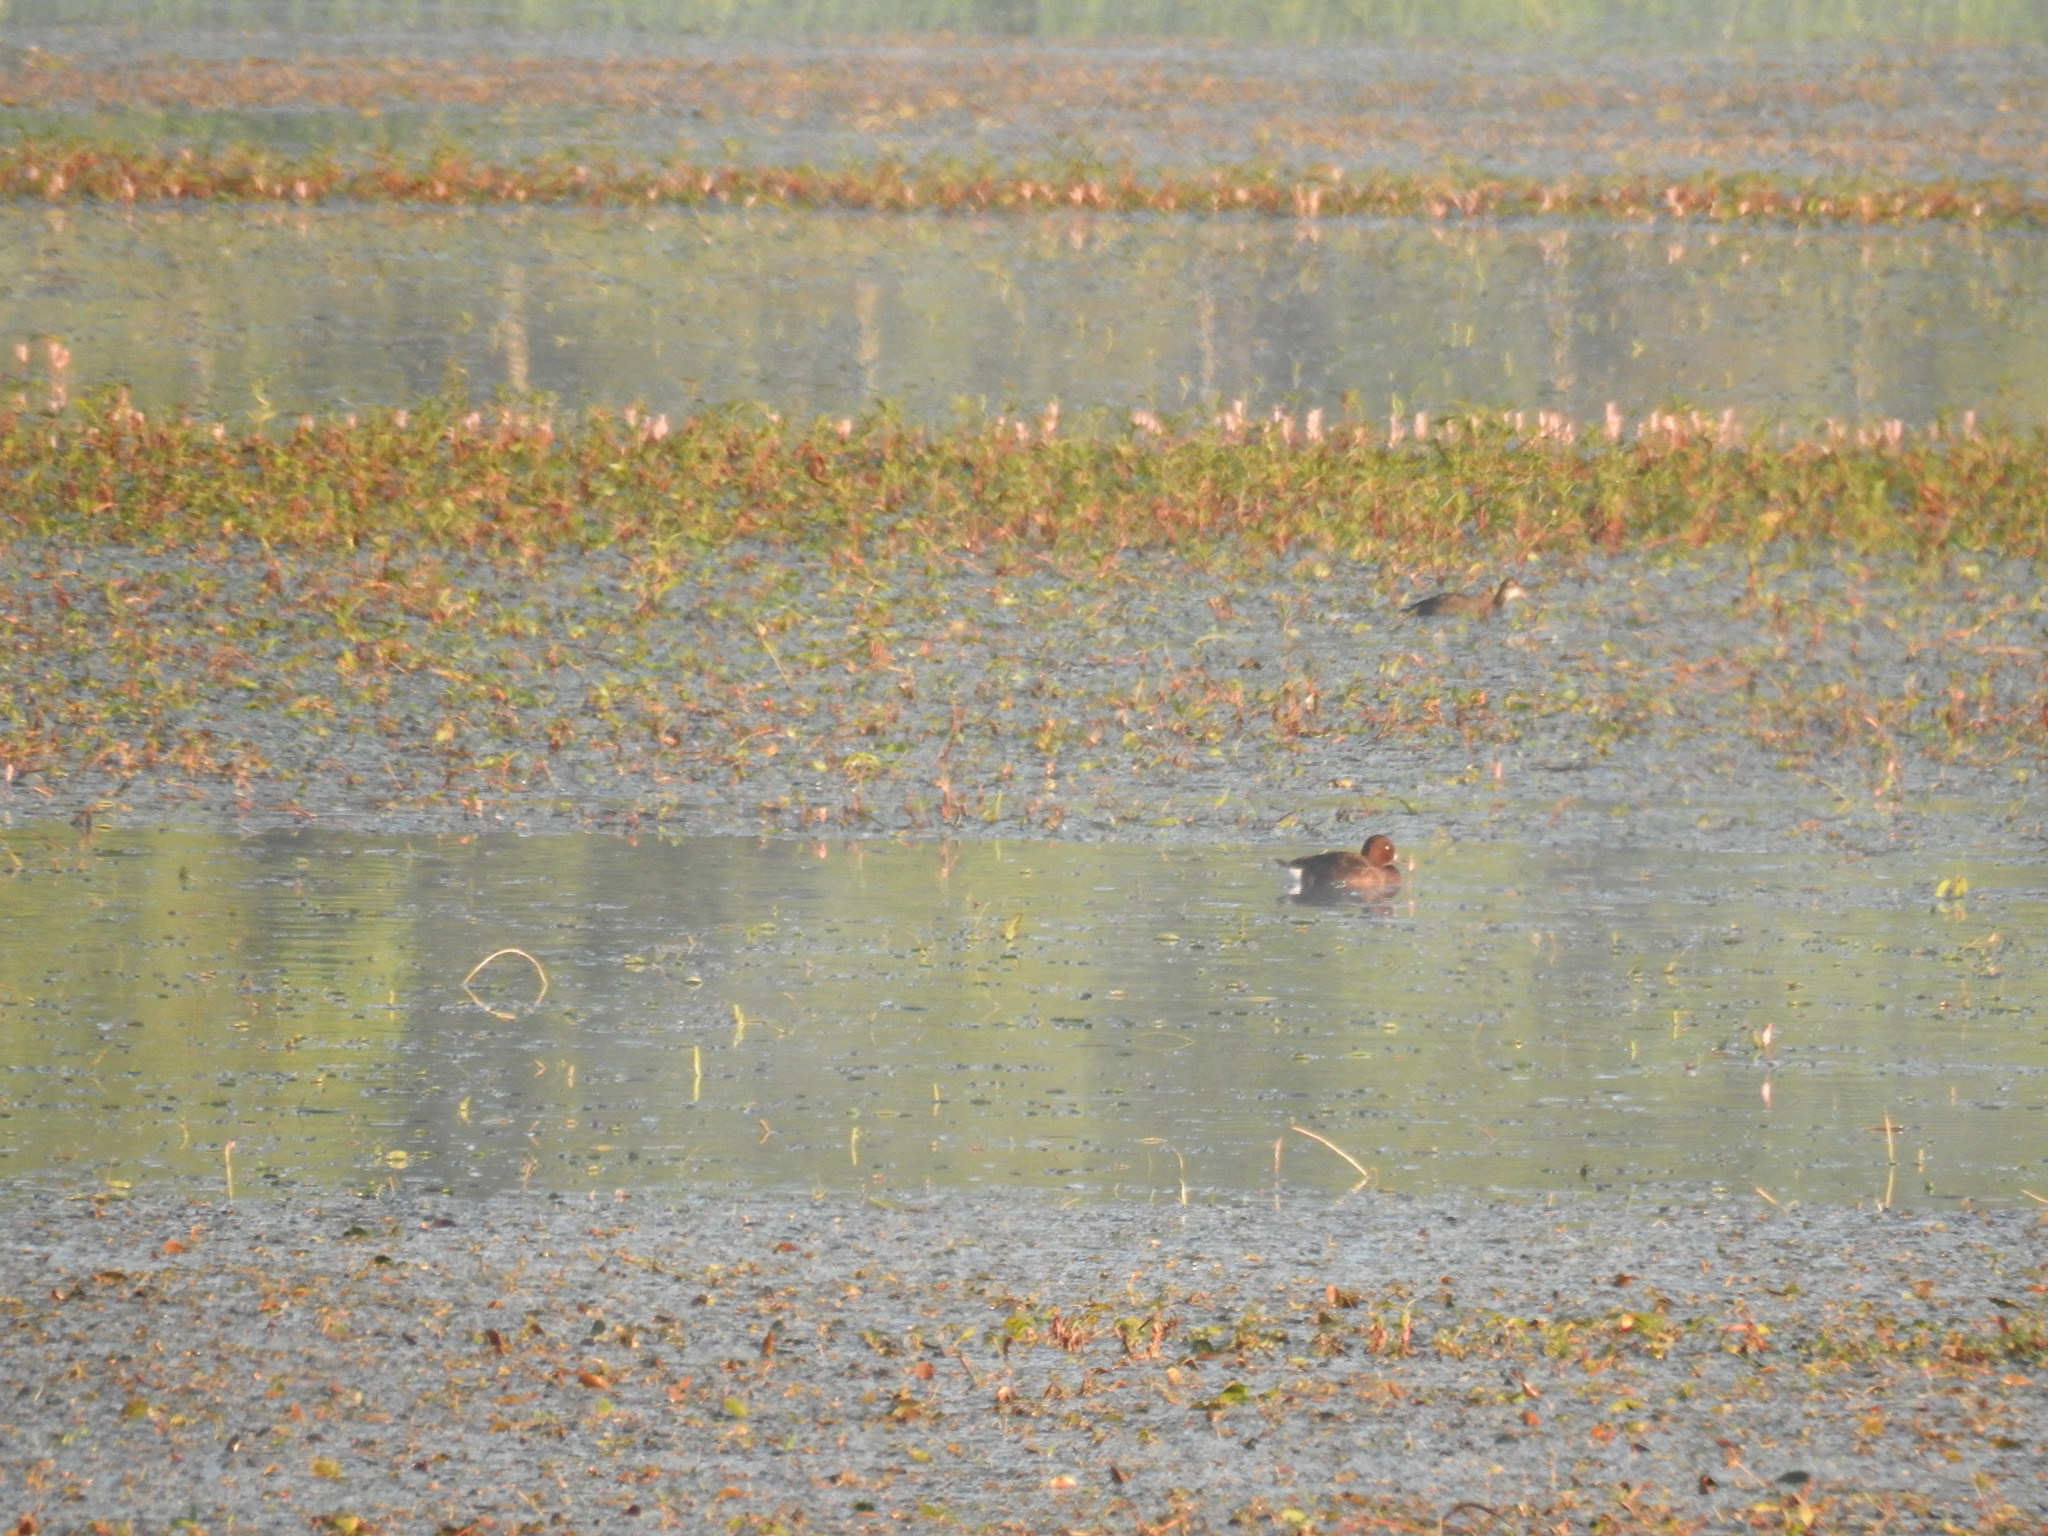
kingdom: Animalia
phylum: Chordata
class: Aves
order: Anseriformes
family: Anatidae
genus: Aythya
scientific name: Aythya nyroca
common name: Ferruginous duck
